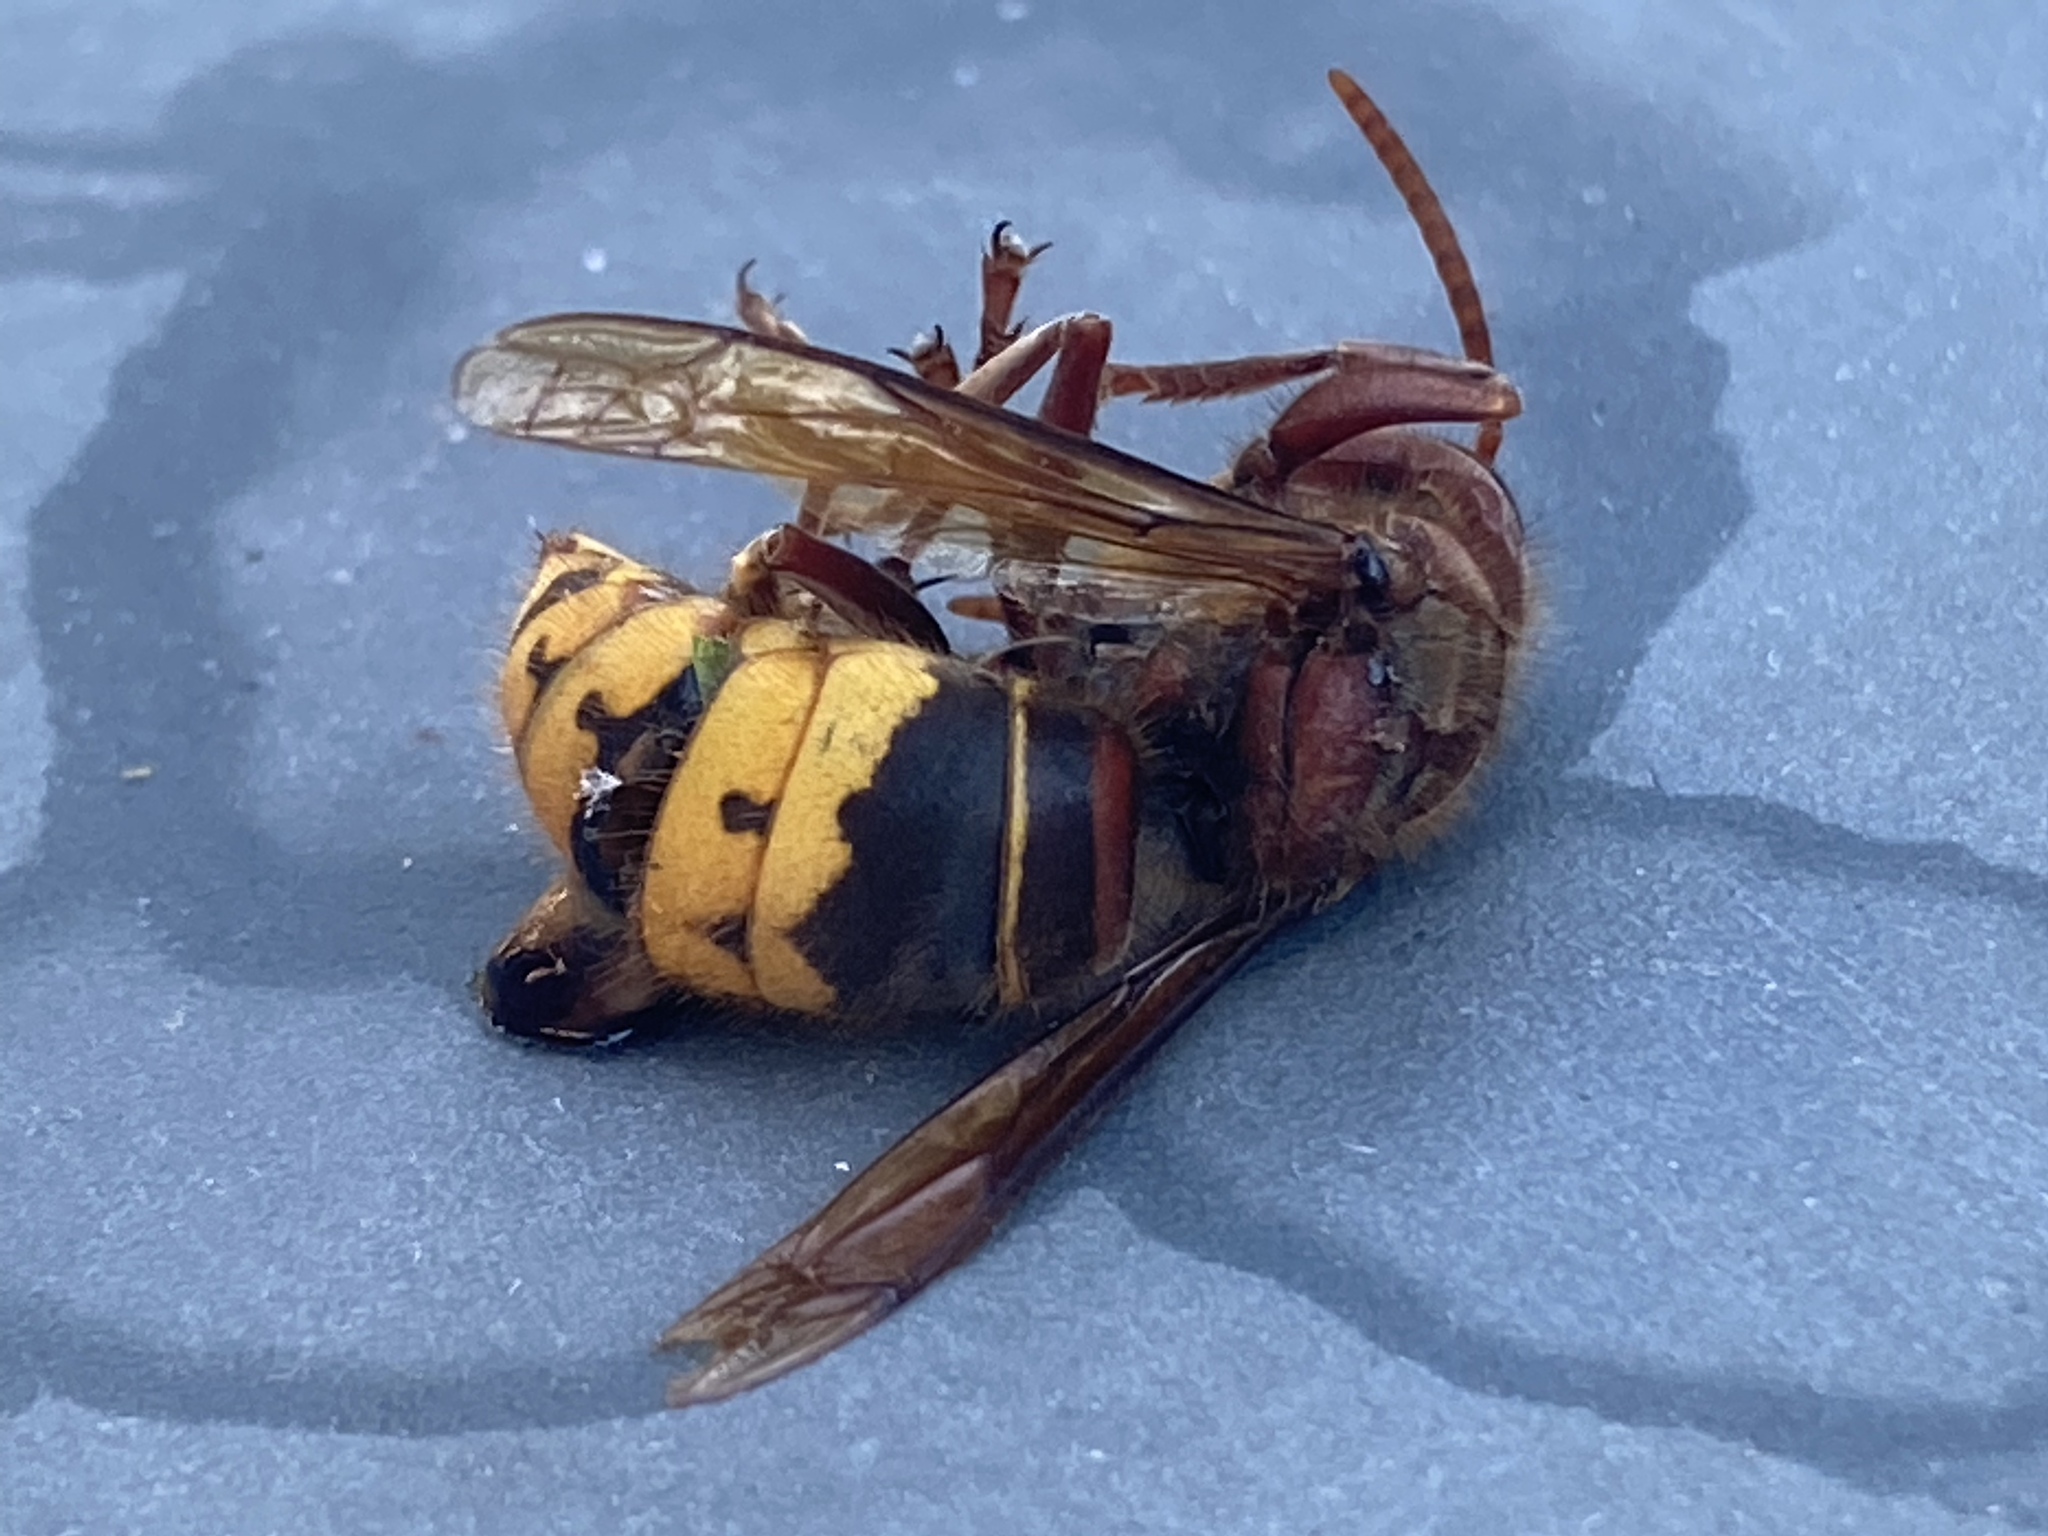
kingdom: Animalia
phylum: Arthropoda
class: Insecta
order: Hymenoptera
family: Vespidae
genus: Vespa
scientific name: Vespa crabro
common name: Hornet
